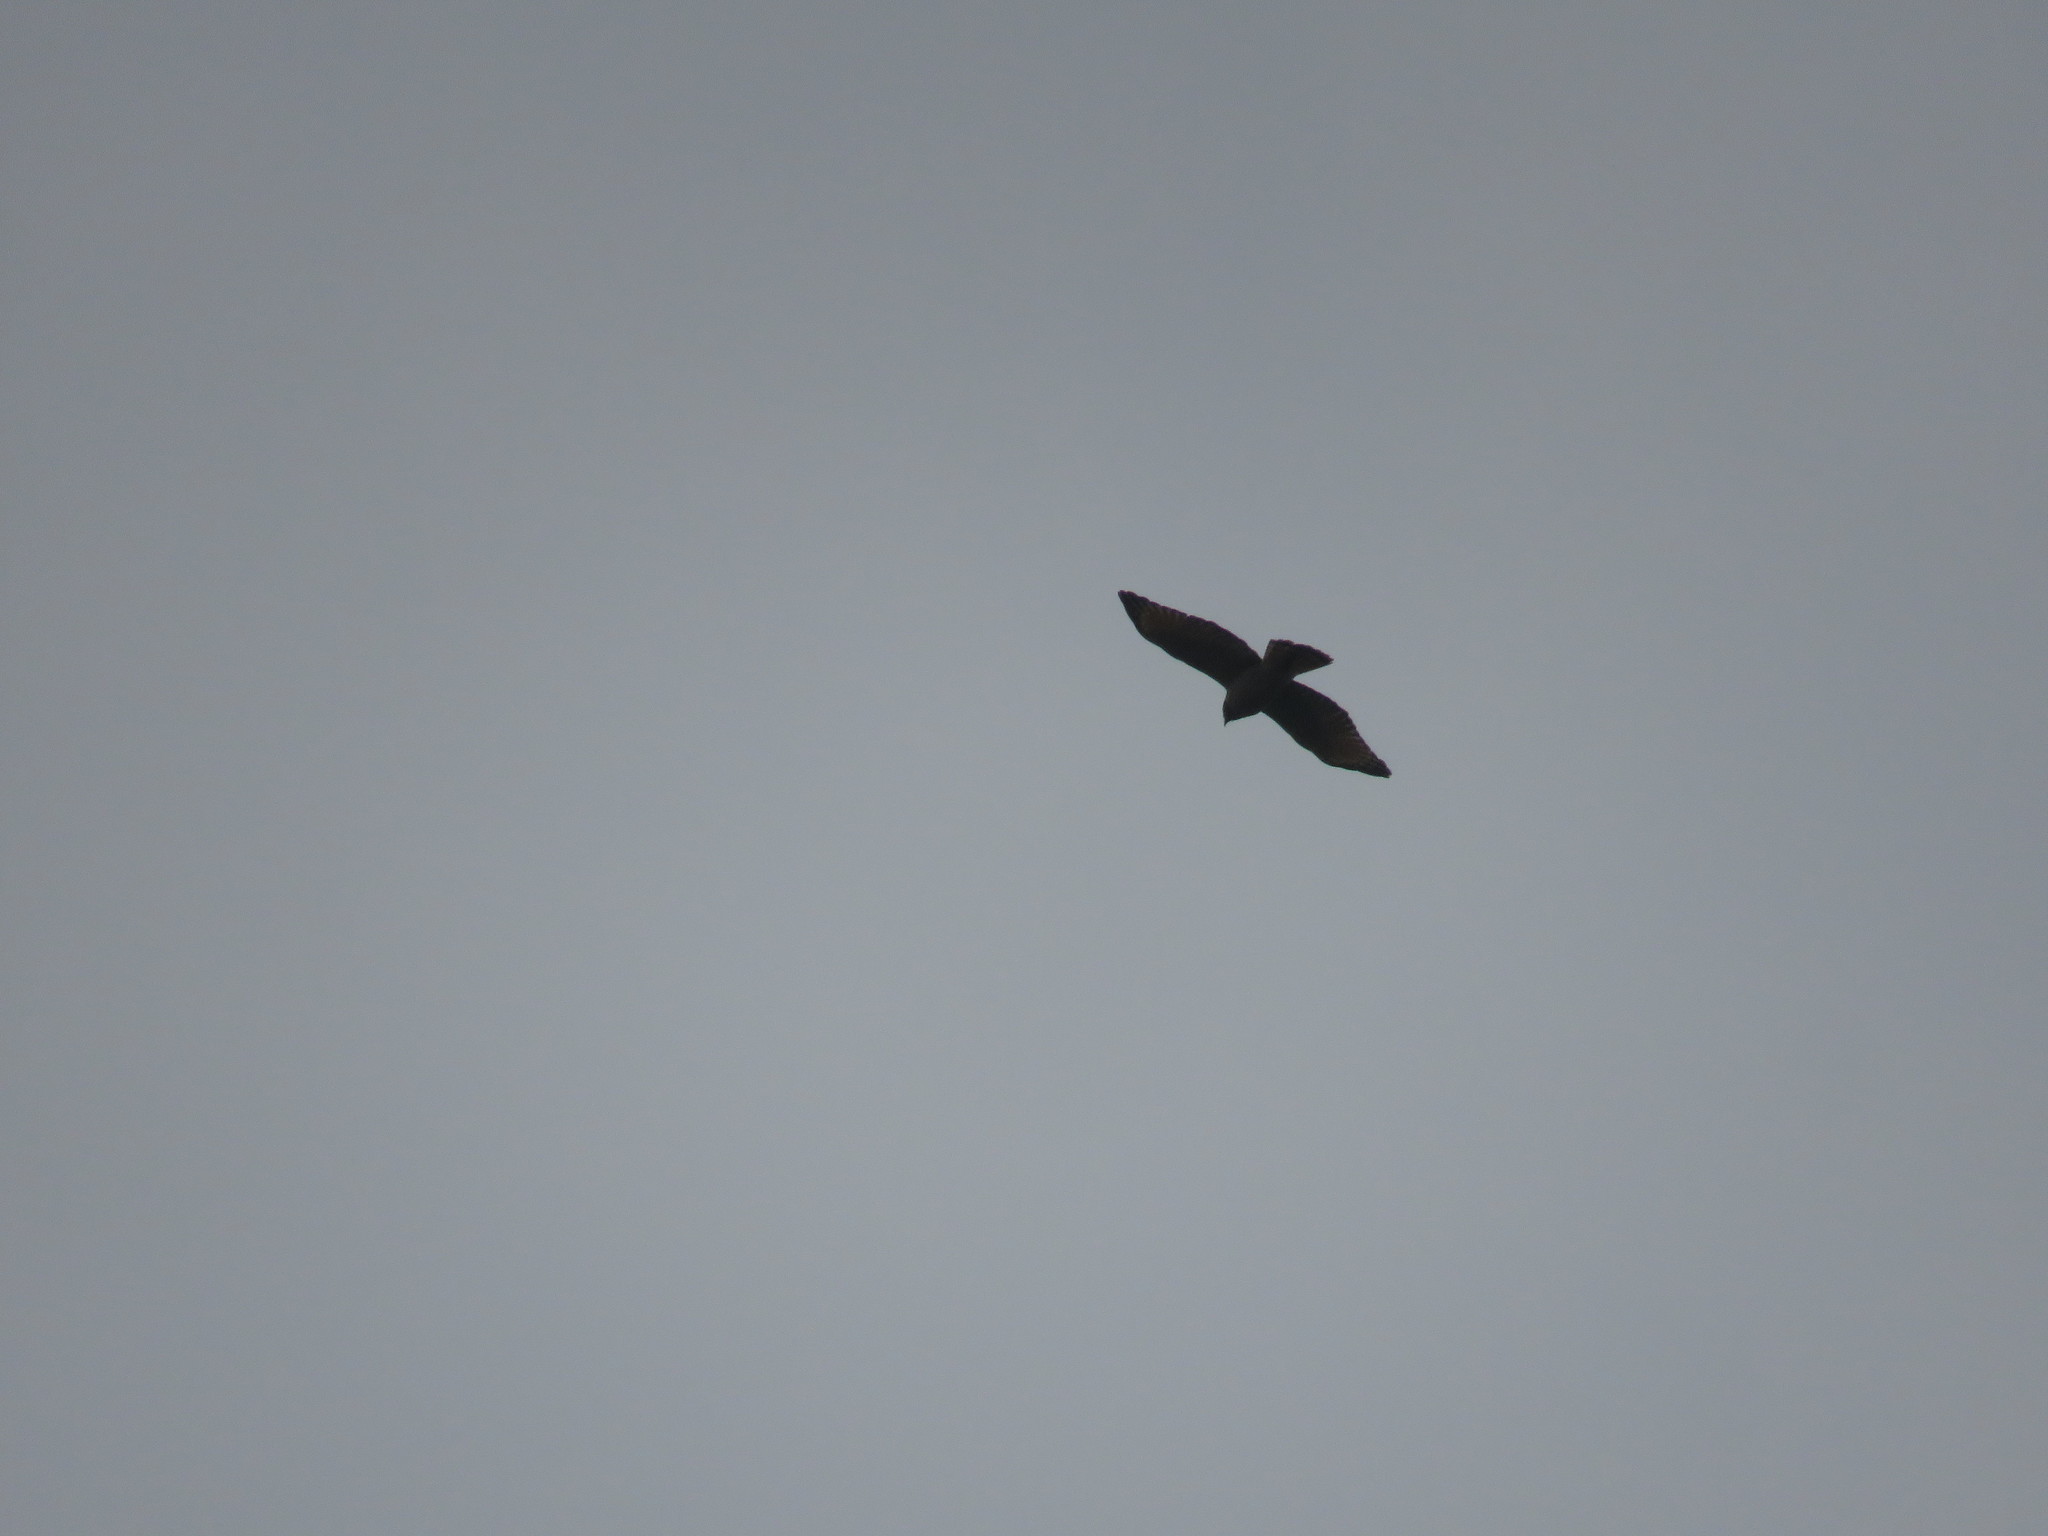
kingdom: Animalia
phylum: Chordata
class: Aves
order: Accipitriformes
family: Accipitridae
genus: Rupornis
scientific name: Rupornis magnirostris
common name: Roadside hawk
